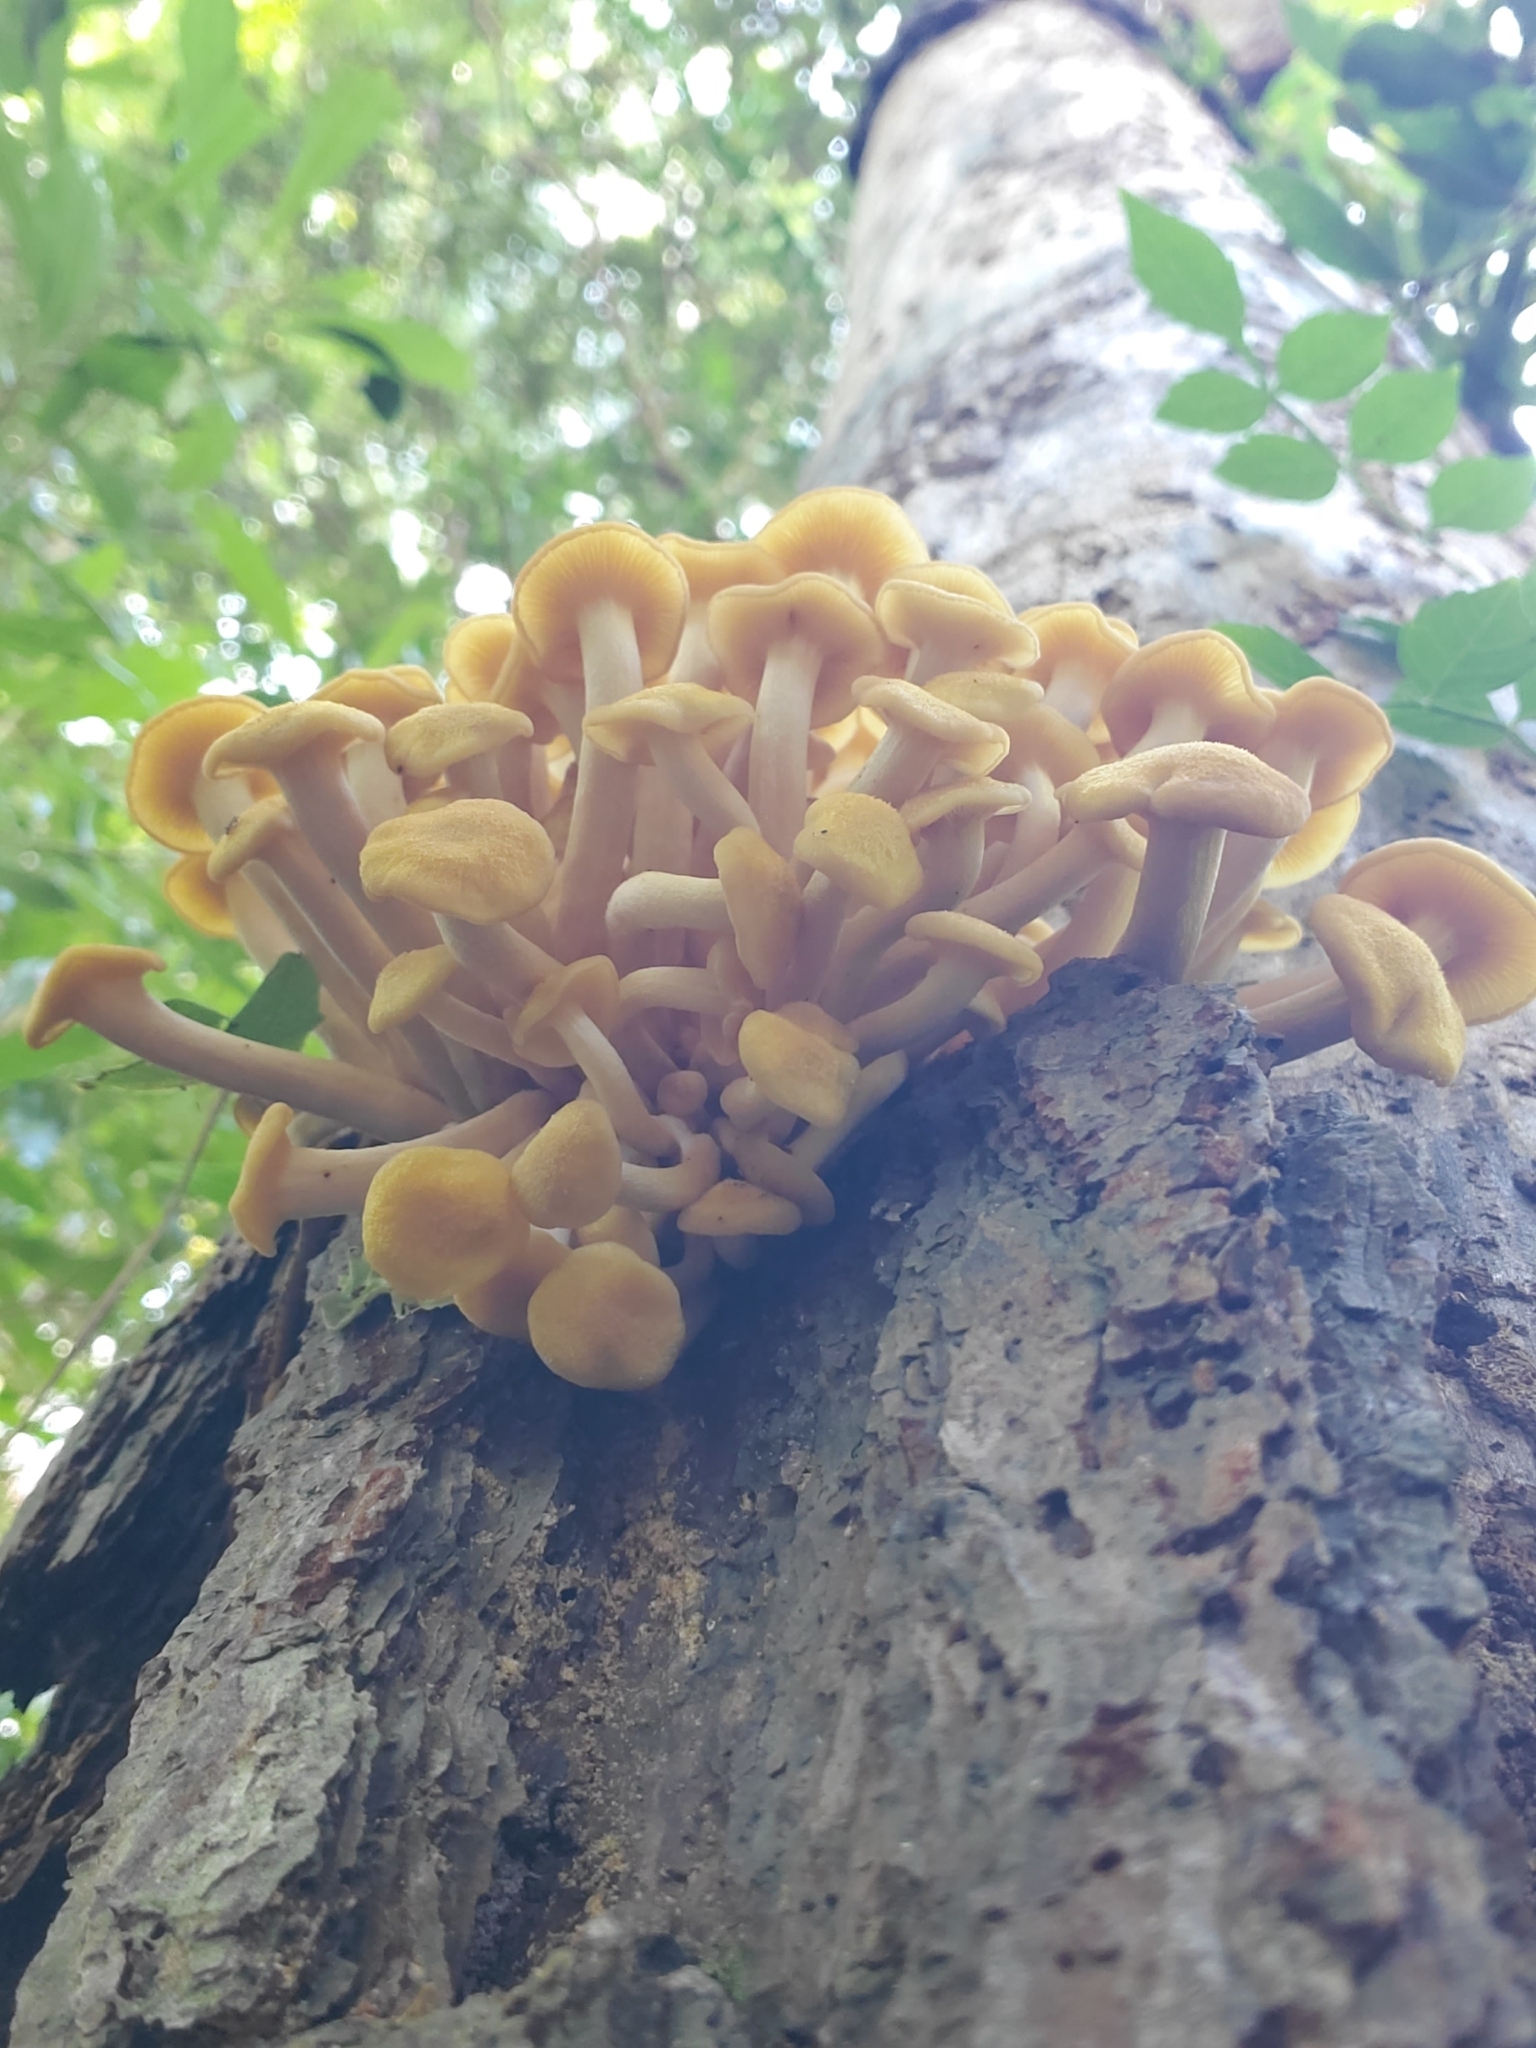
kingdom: Fungi
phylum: Basidiomycota
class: Agaricomycetes
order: Agaricales
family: Physalacriaceae
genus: Desarmillaria
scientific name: Desarmillaria caespitosa
